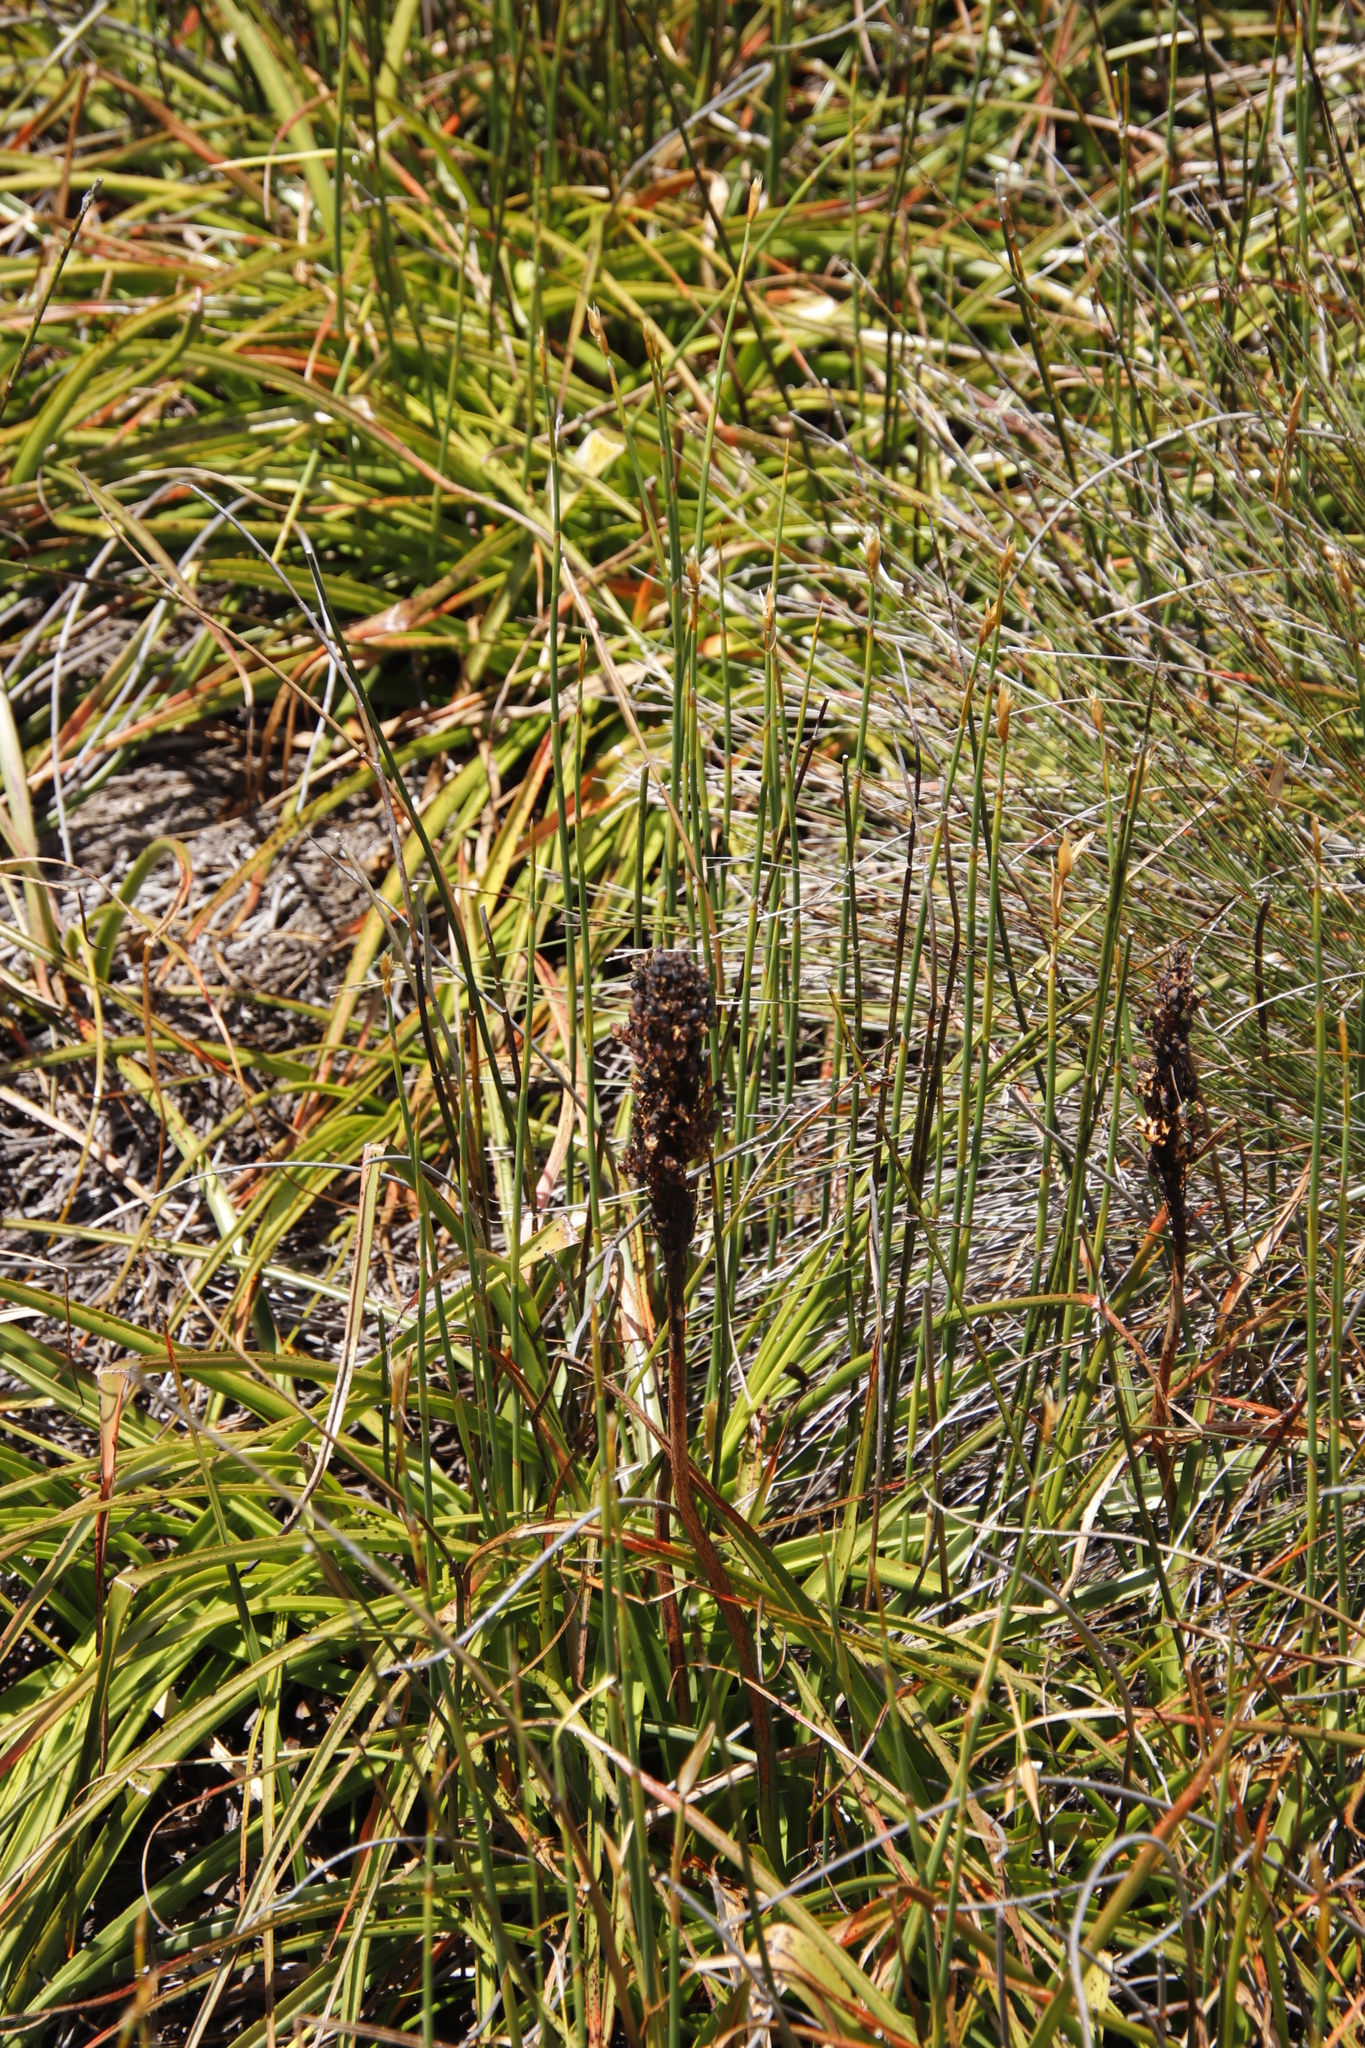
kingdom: Plantae
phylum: Tracheophyta
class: Liliopsida
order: Asparagales
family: Asphodelaceae
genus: Kniphofia
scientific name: Kniphofia tabularis
